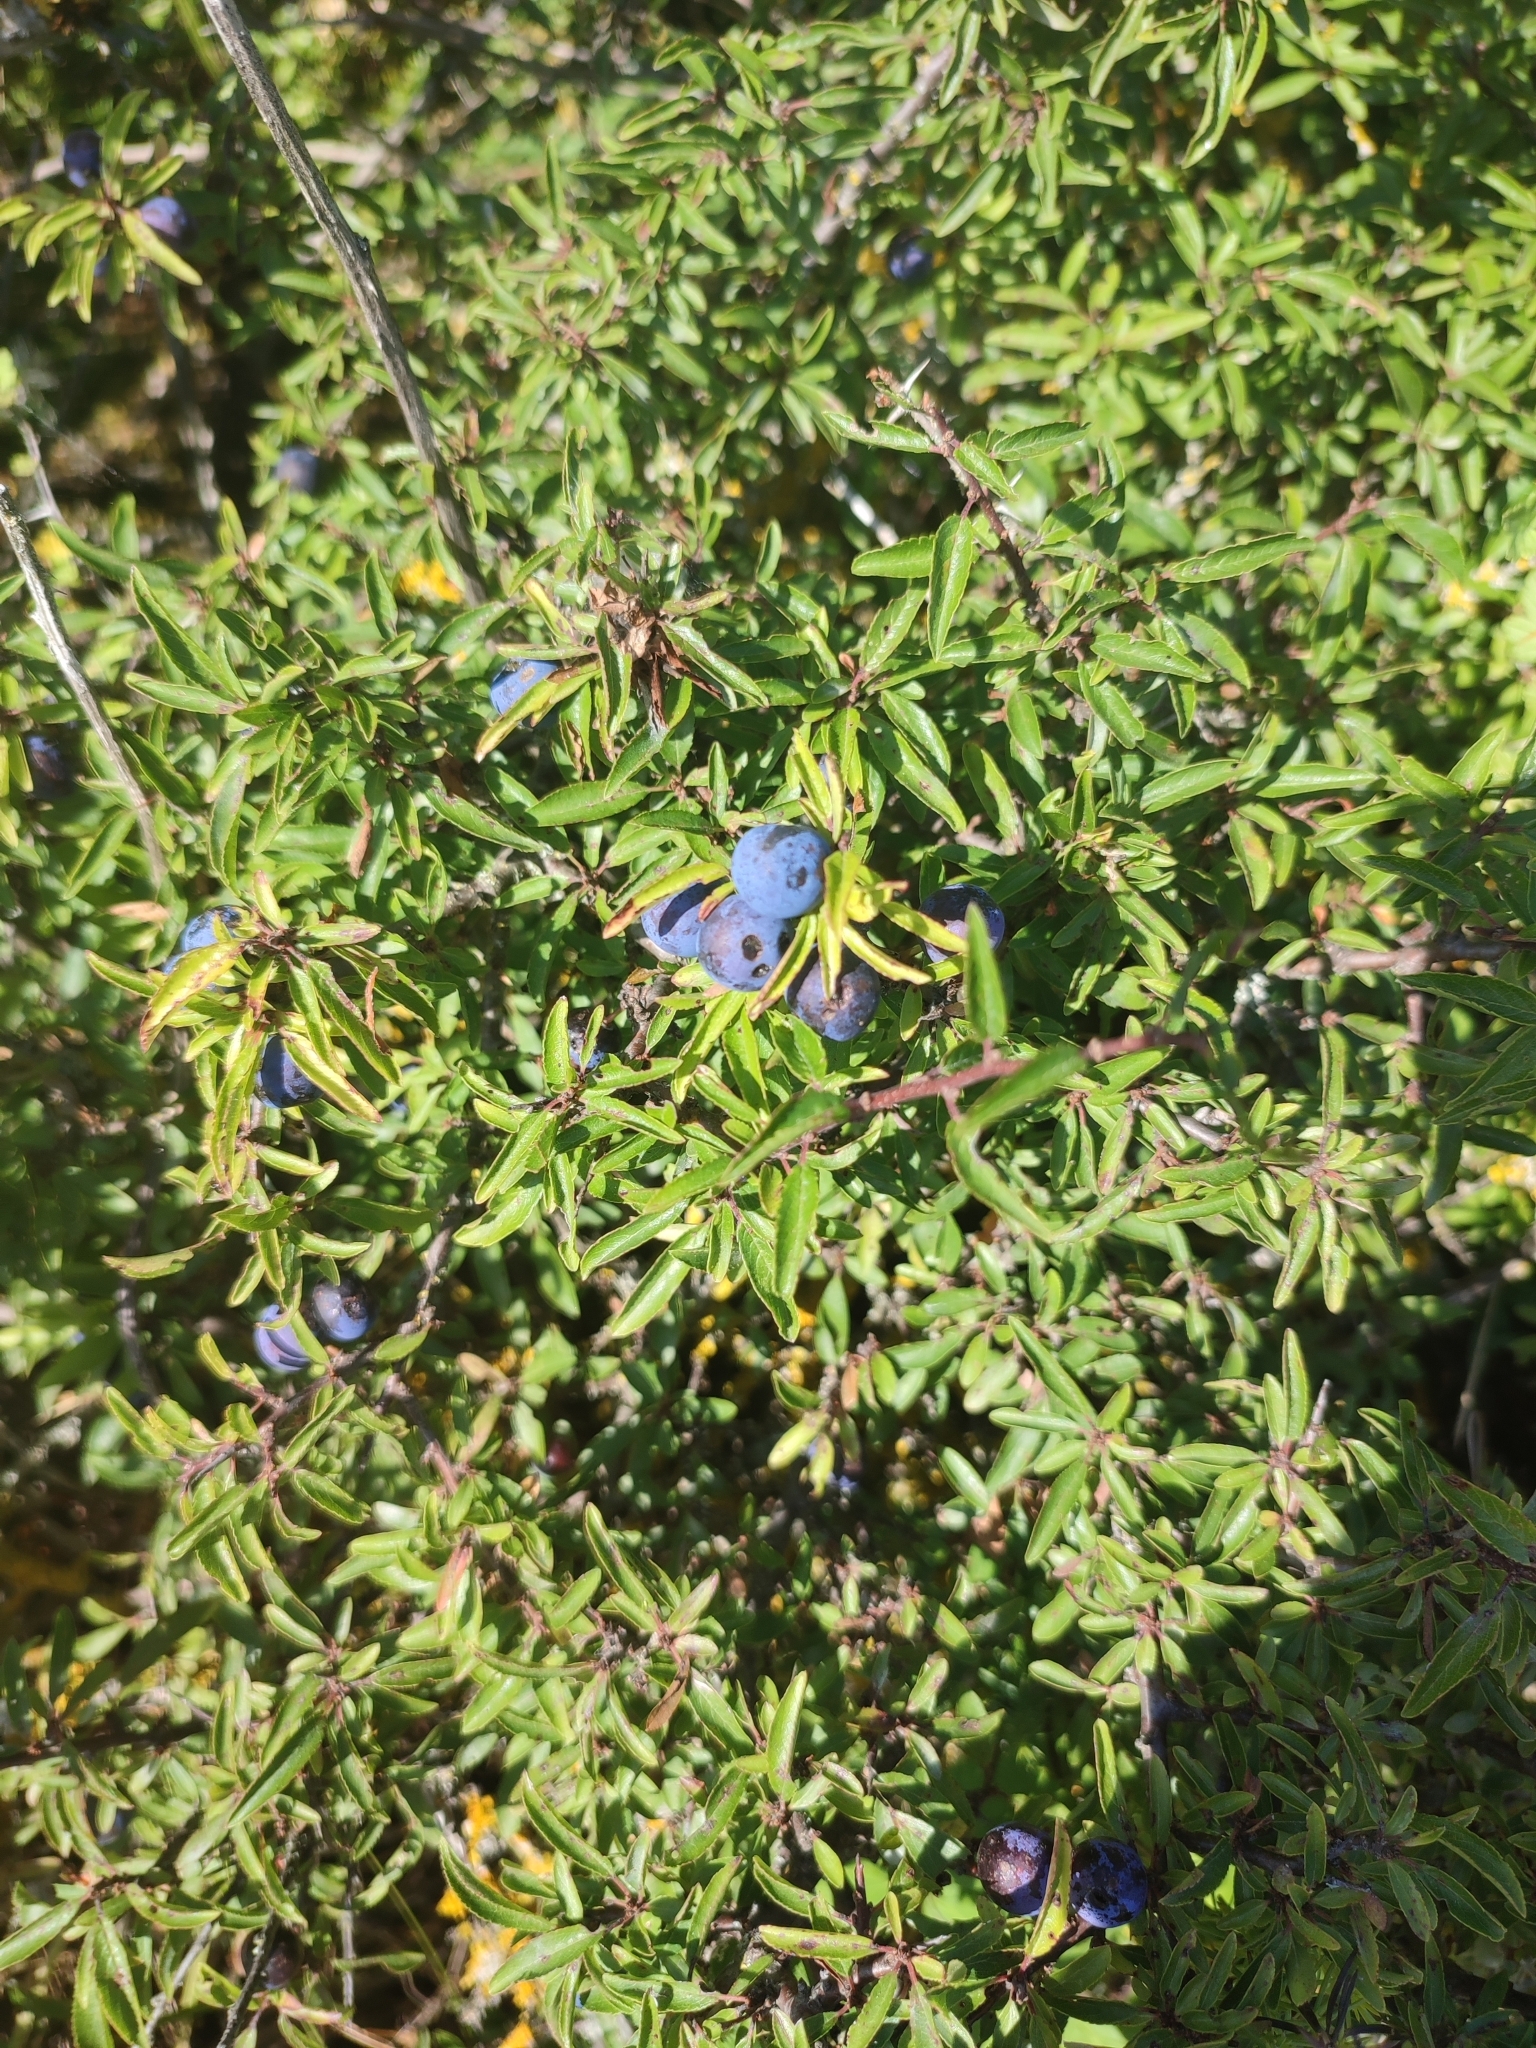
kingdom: Plantae
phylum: Tracheophyta
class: Magnoliopsida
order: Rosales
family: Rosaceae
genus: Prunus
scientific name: Prunus spinosa
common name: Blackthorn
